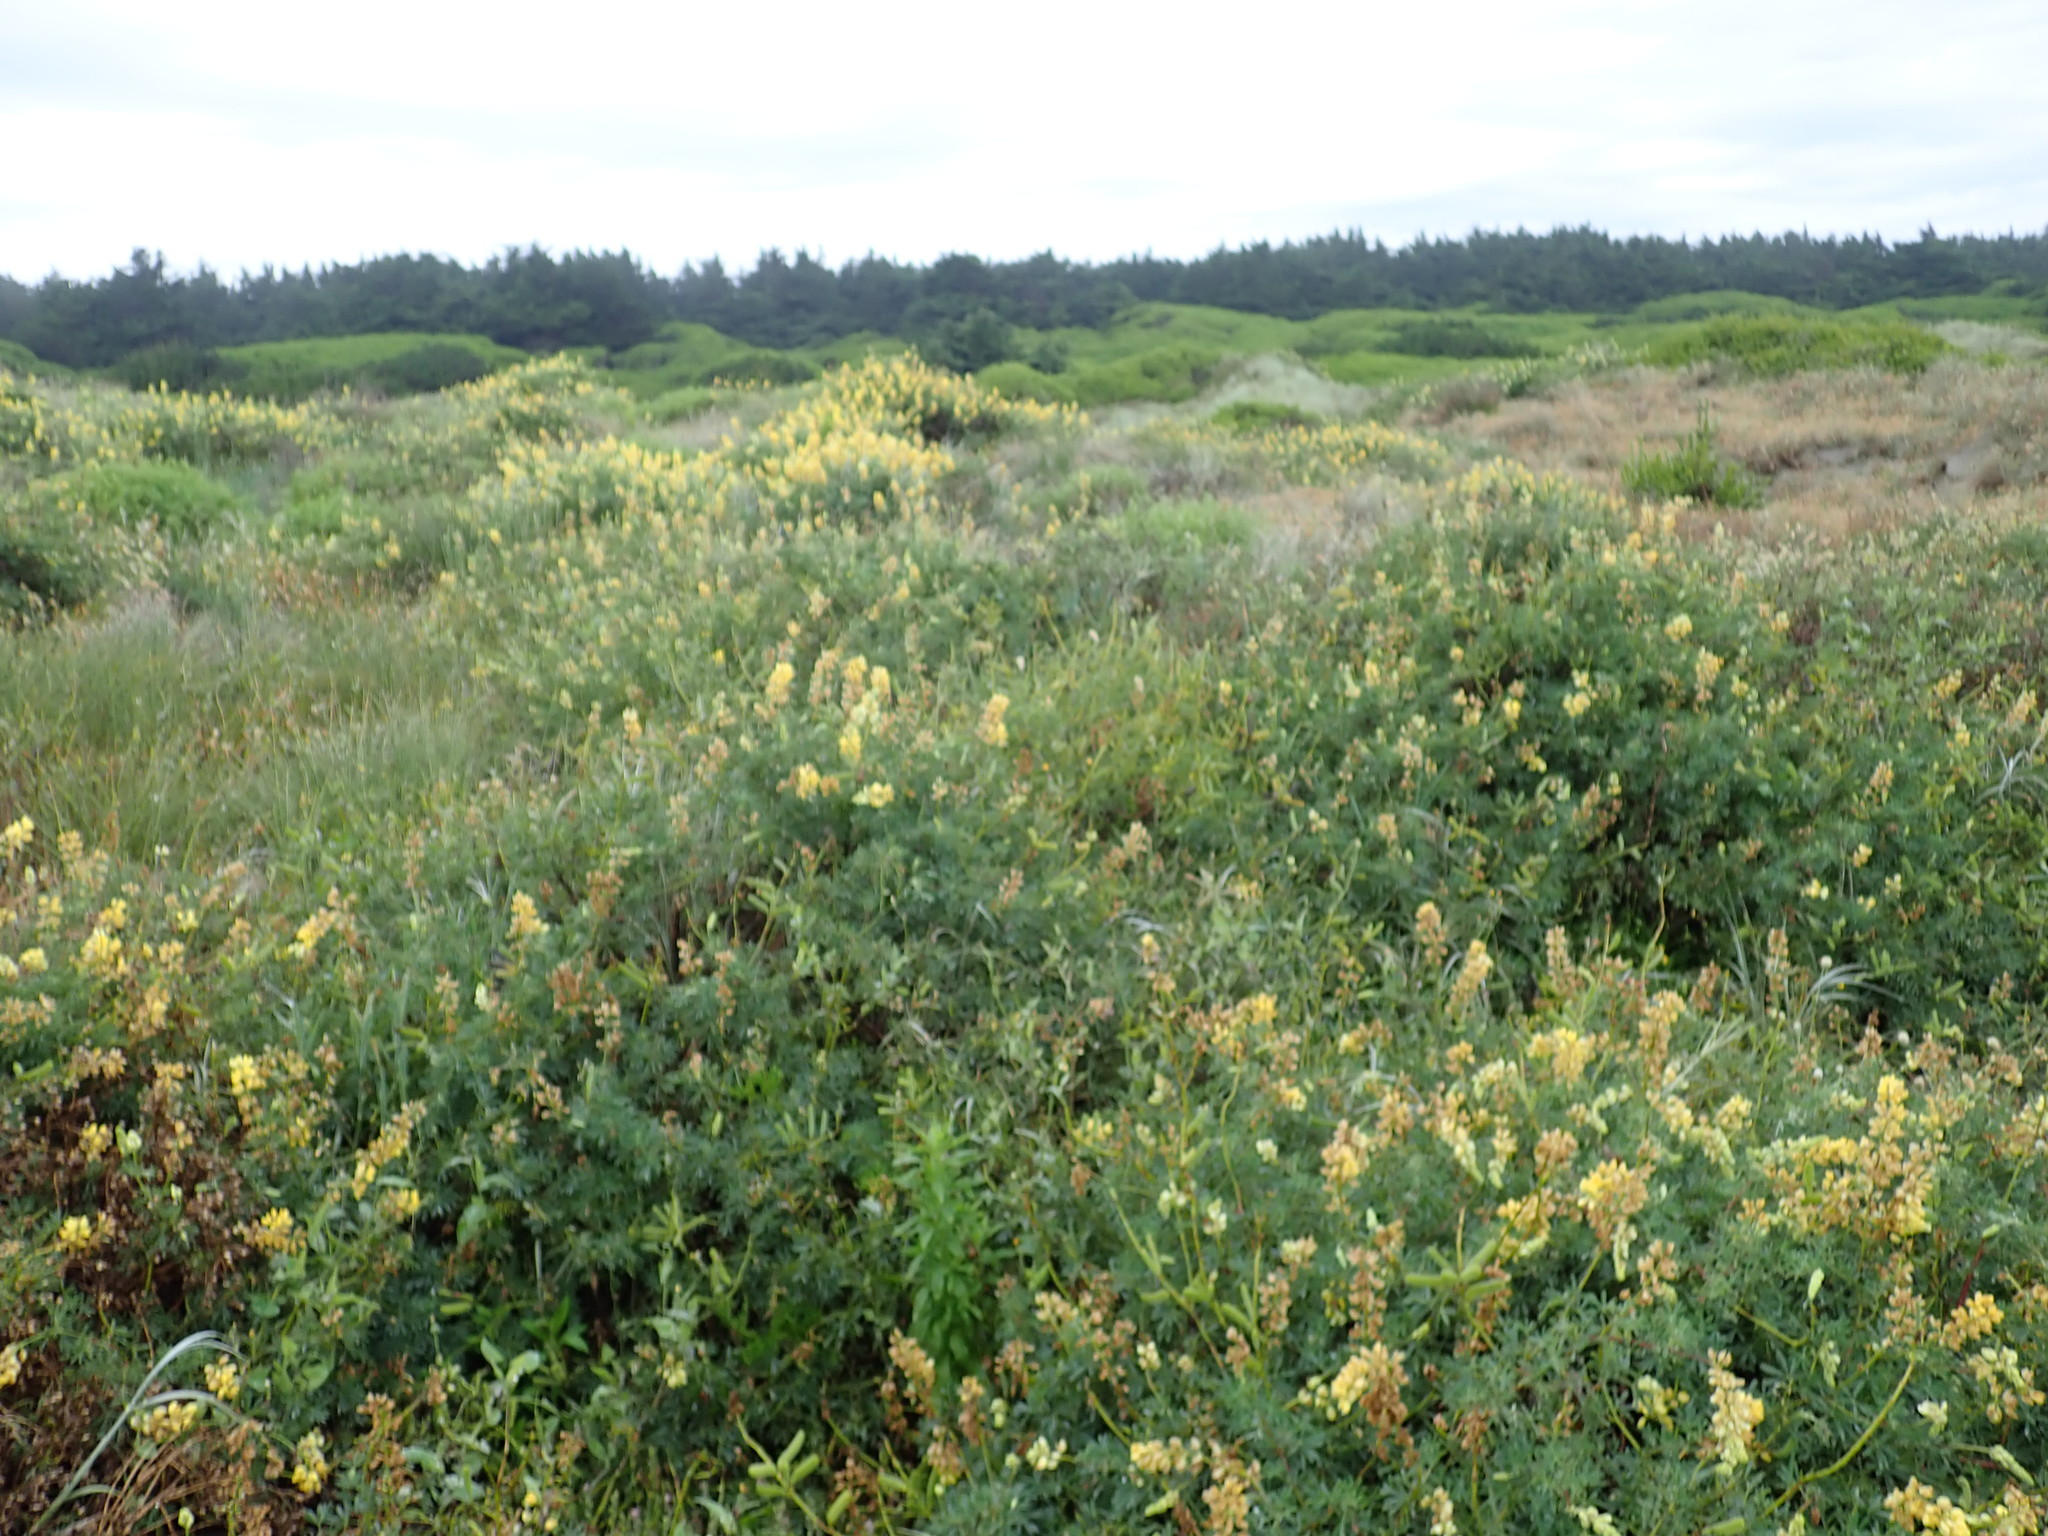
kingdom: Plantae
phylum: Tracheophyta
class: Magnoliopsida
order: Fabales
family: Fabaceae
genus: Lupinus
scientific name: Lupinus arboreus
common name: Yellow bush lupine
